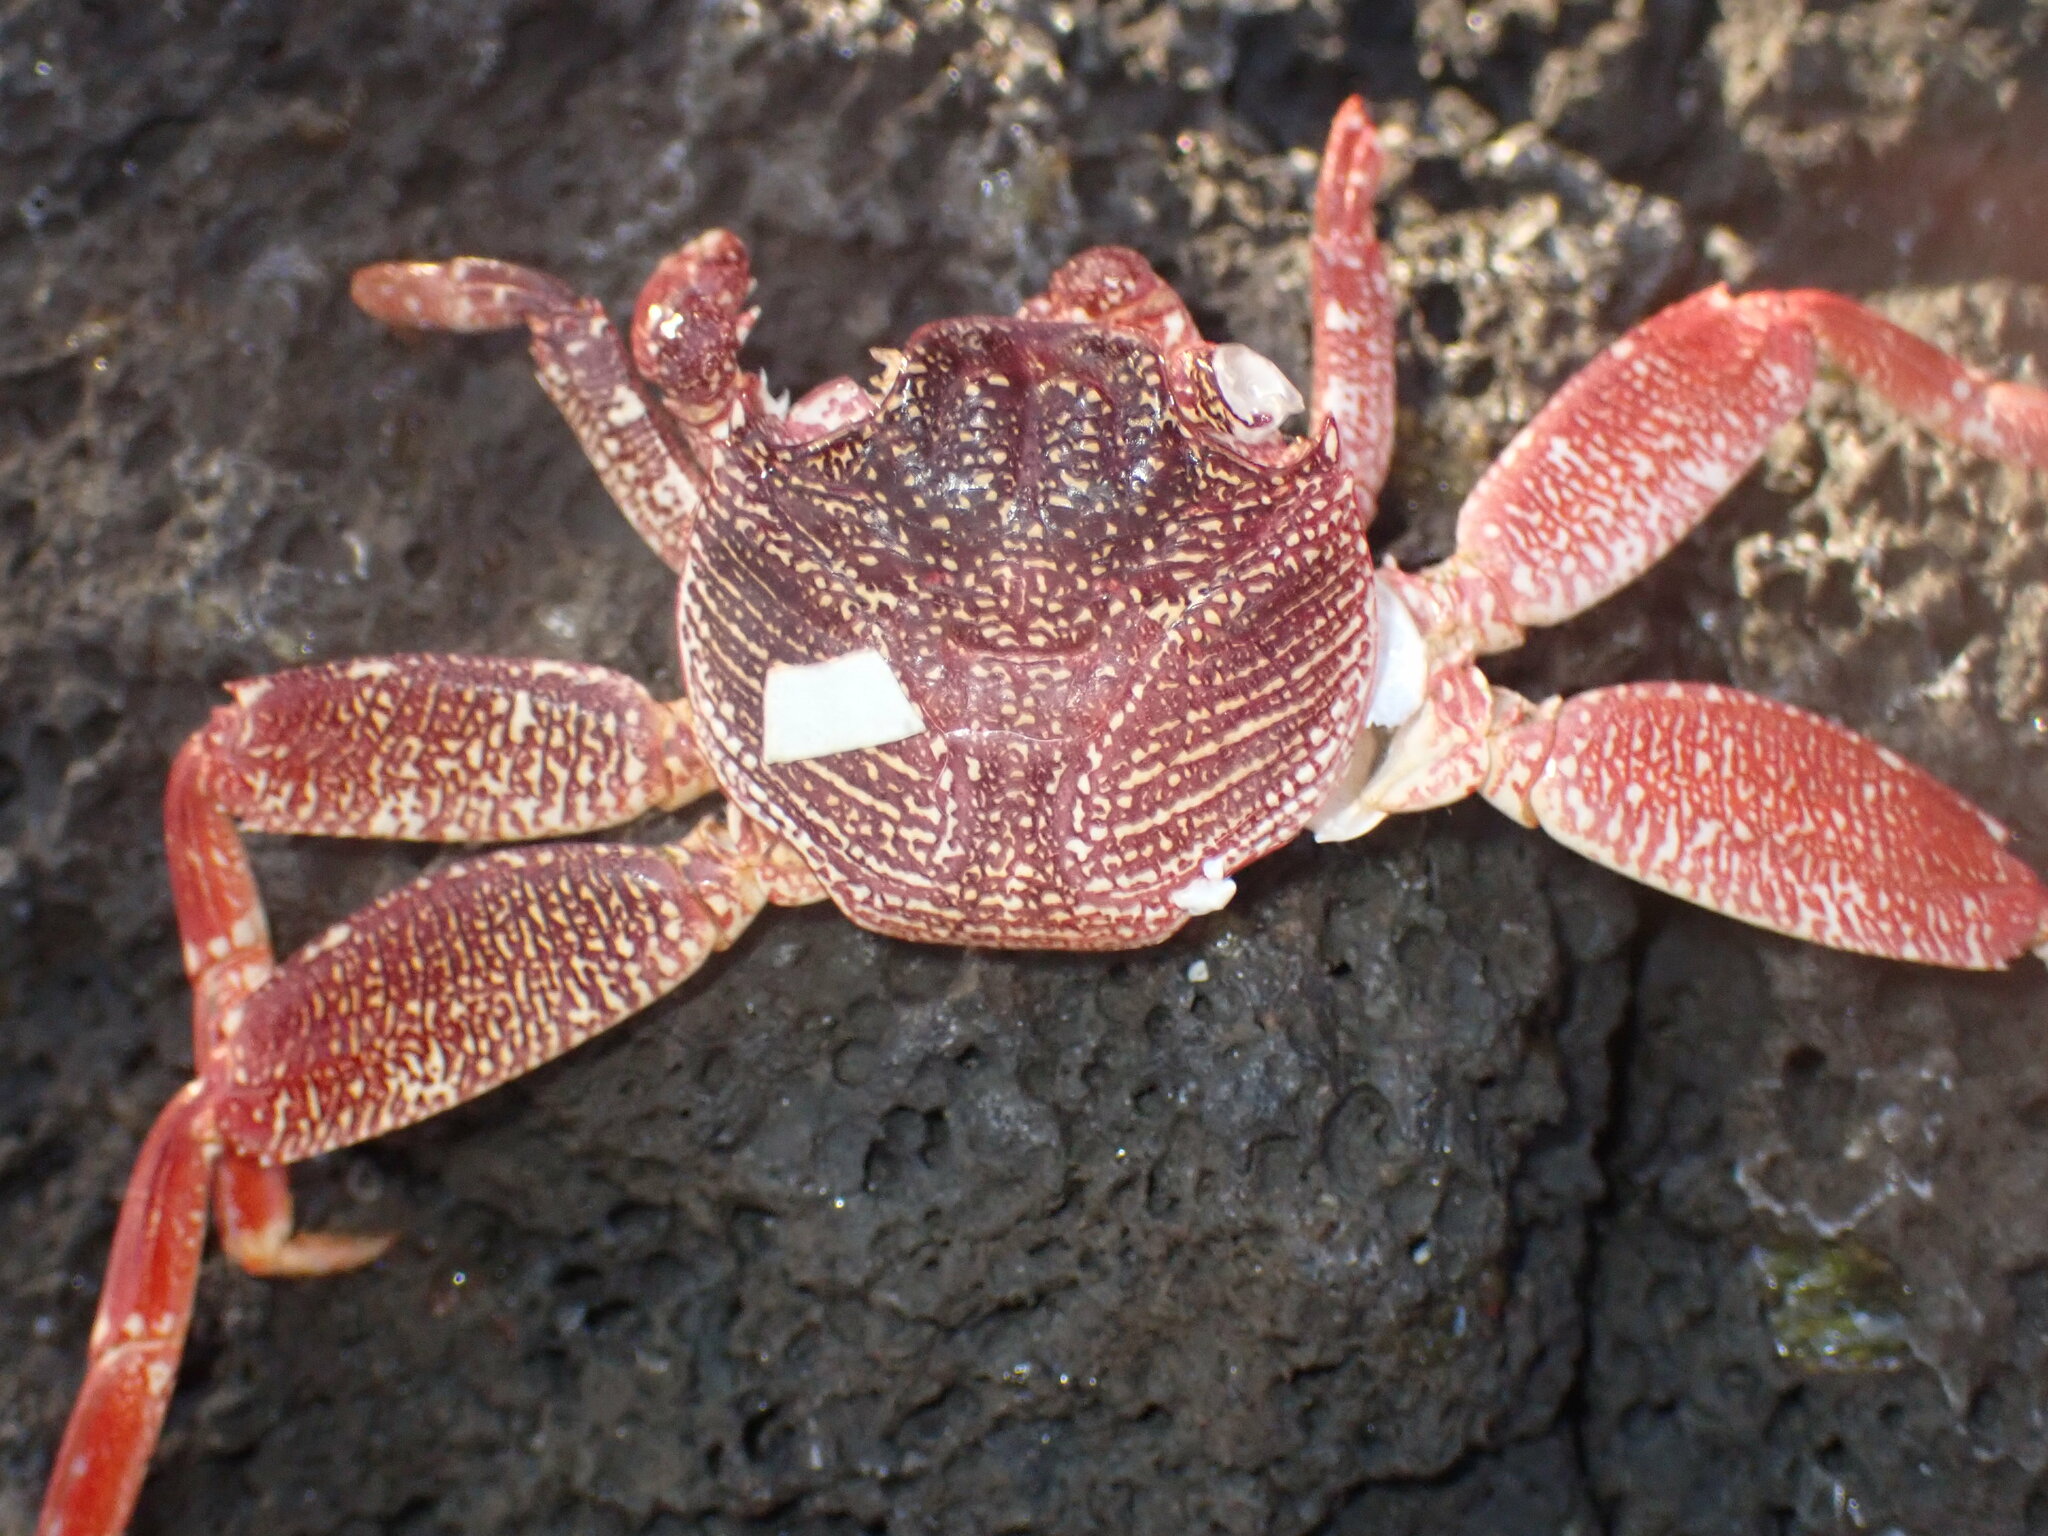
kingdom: Animalia
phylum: Arthropoda
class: Malacostraca
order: Decapoda
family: Grapsidae
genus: Grapsus
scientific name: Grapsus tenuicrustatus
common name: Natal lightfoot crab
